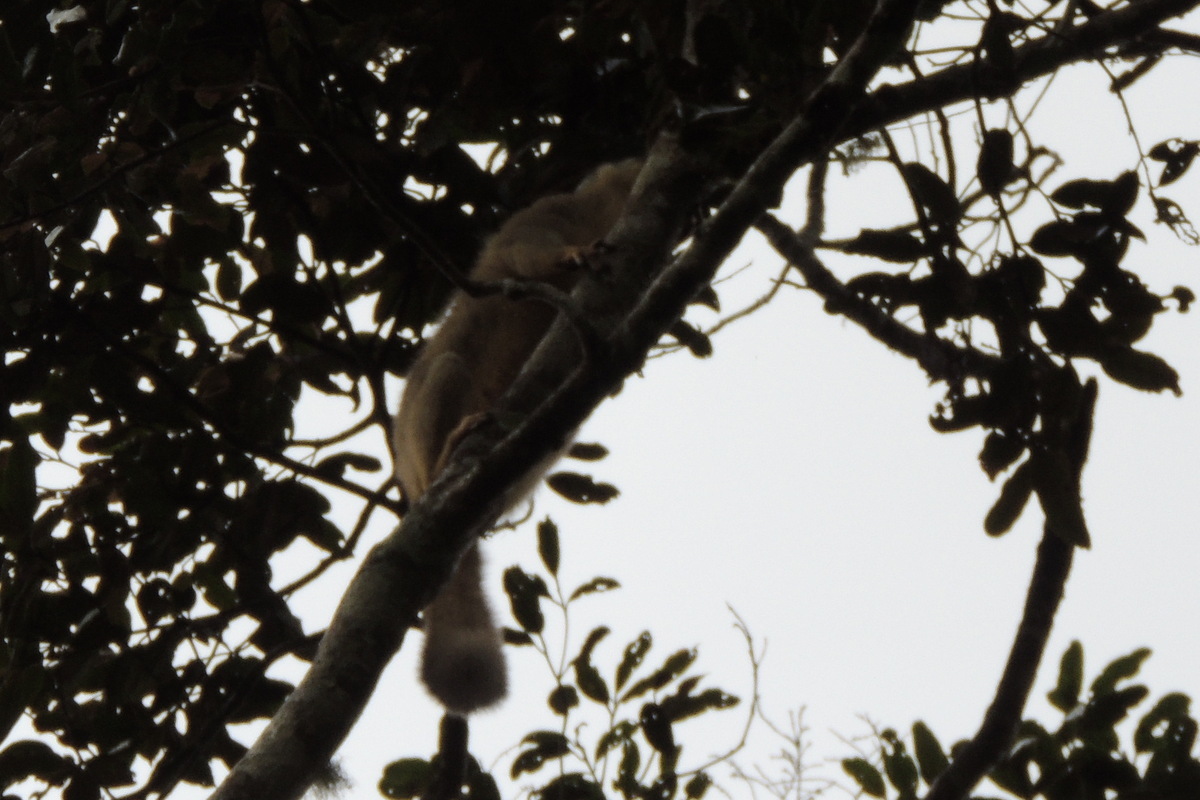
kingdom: Animalia
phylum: Chordata
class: Mammalia
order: Primates
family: Lemuridae
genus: Eulemur
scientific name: Eulemur fulvus
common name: Brown lemur
